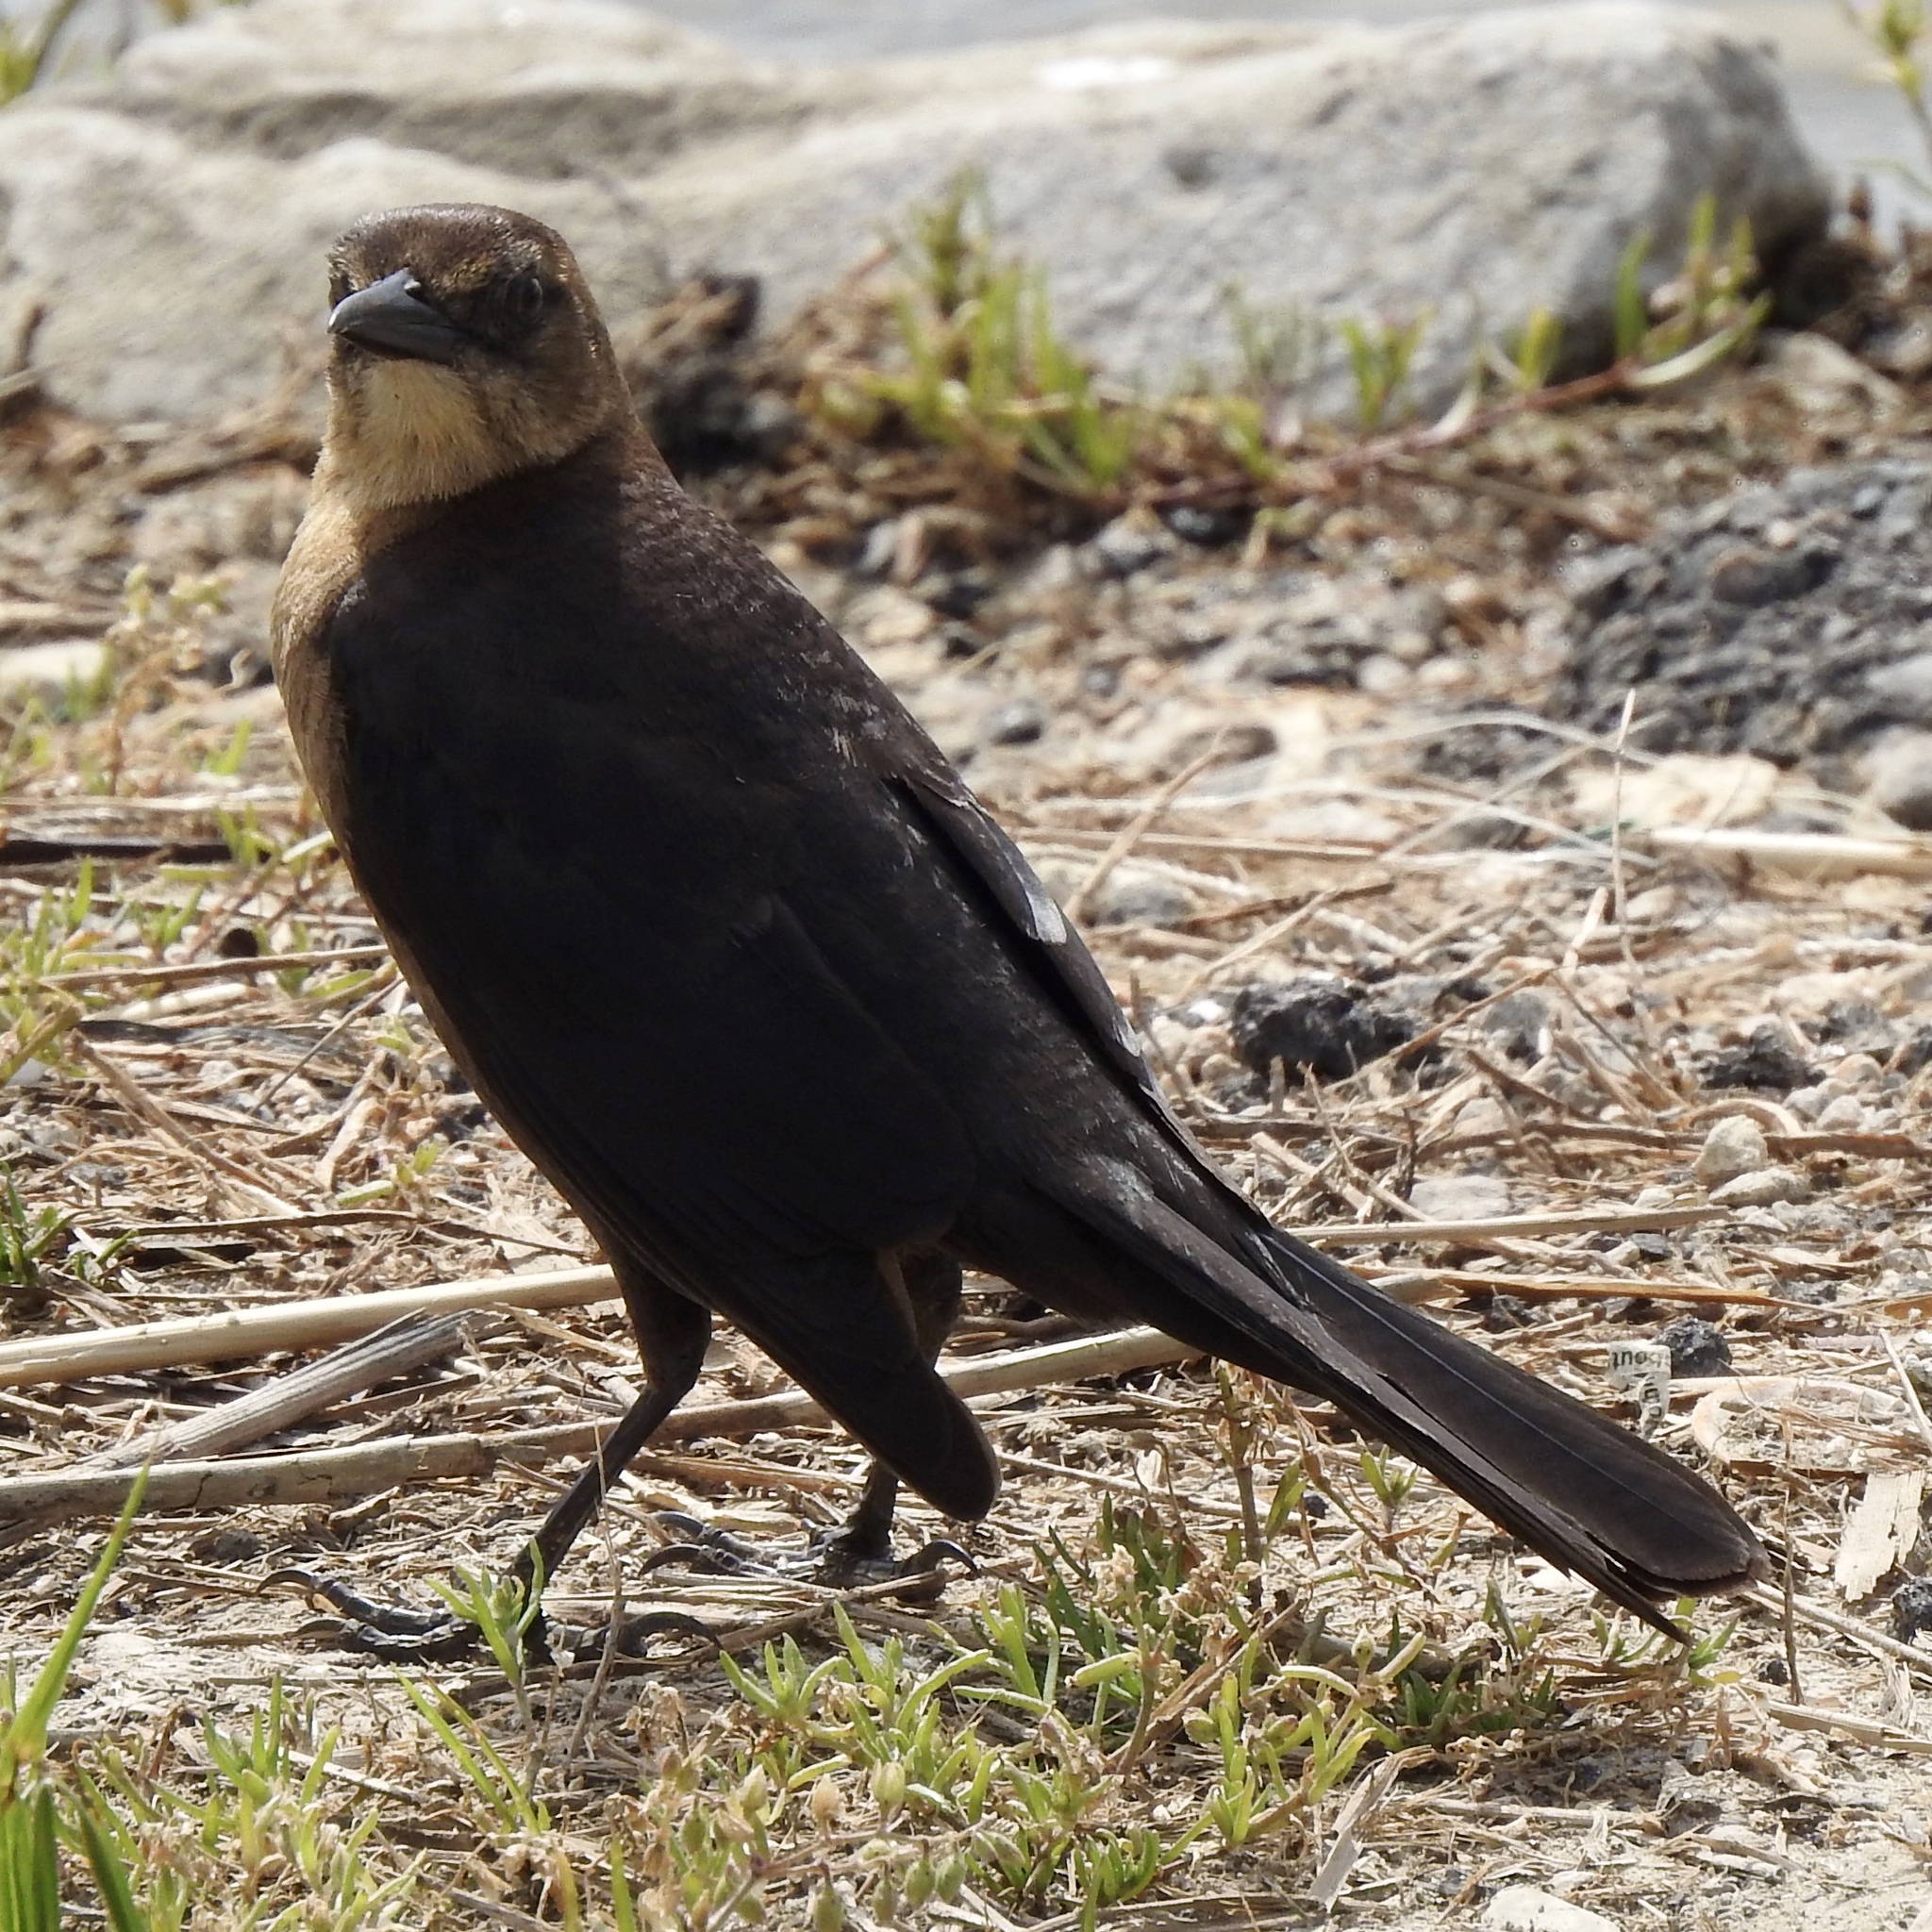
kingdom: Animalia
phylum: Chordata
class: Aves
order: Passeriformes
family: Icteridae
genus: Quiscalus
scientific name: Quiscalus mexicanus
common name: Great-tailed grackle
